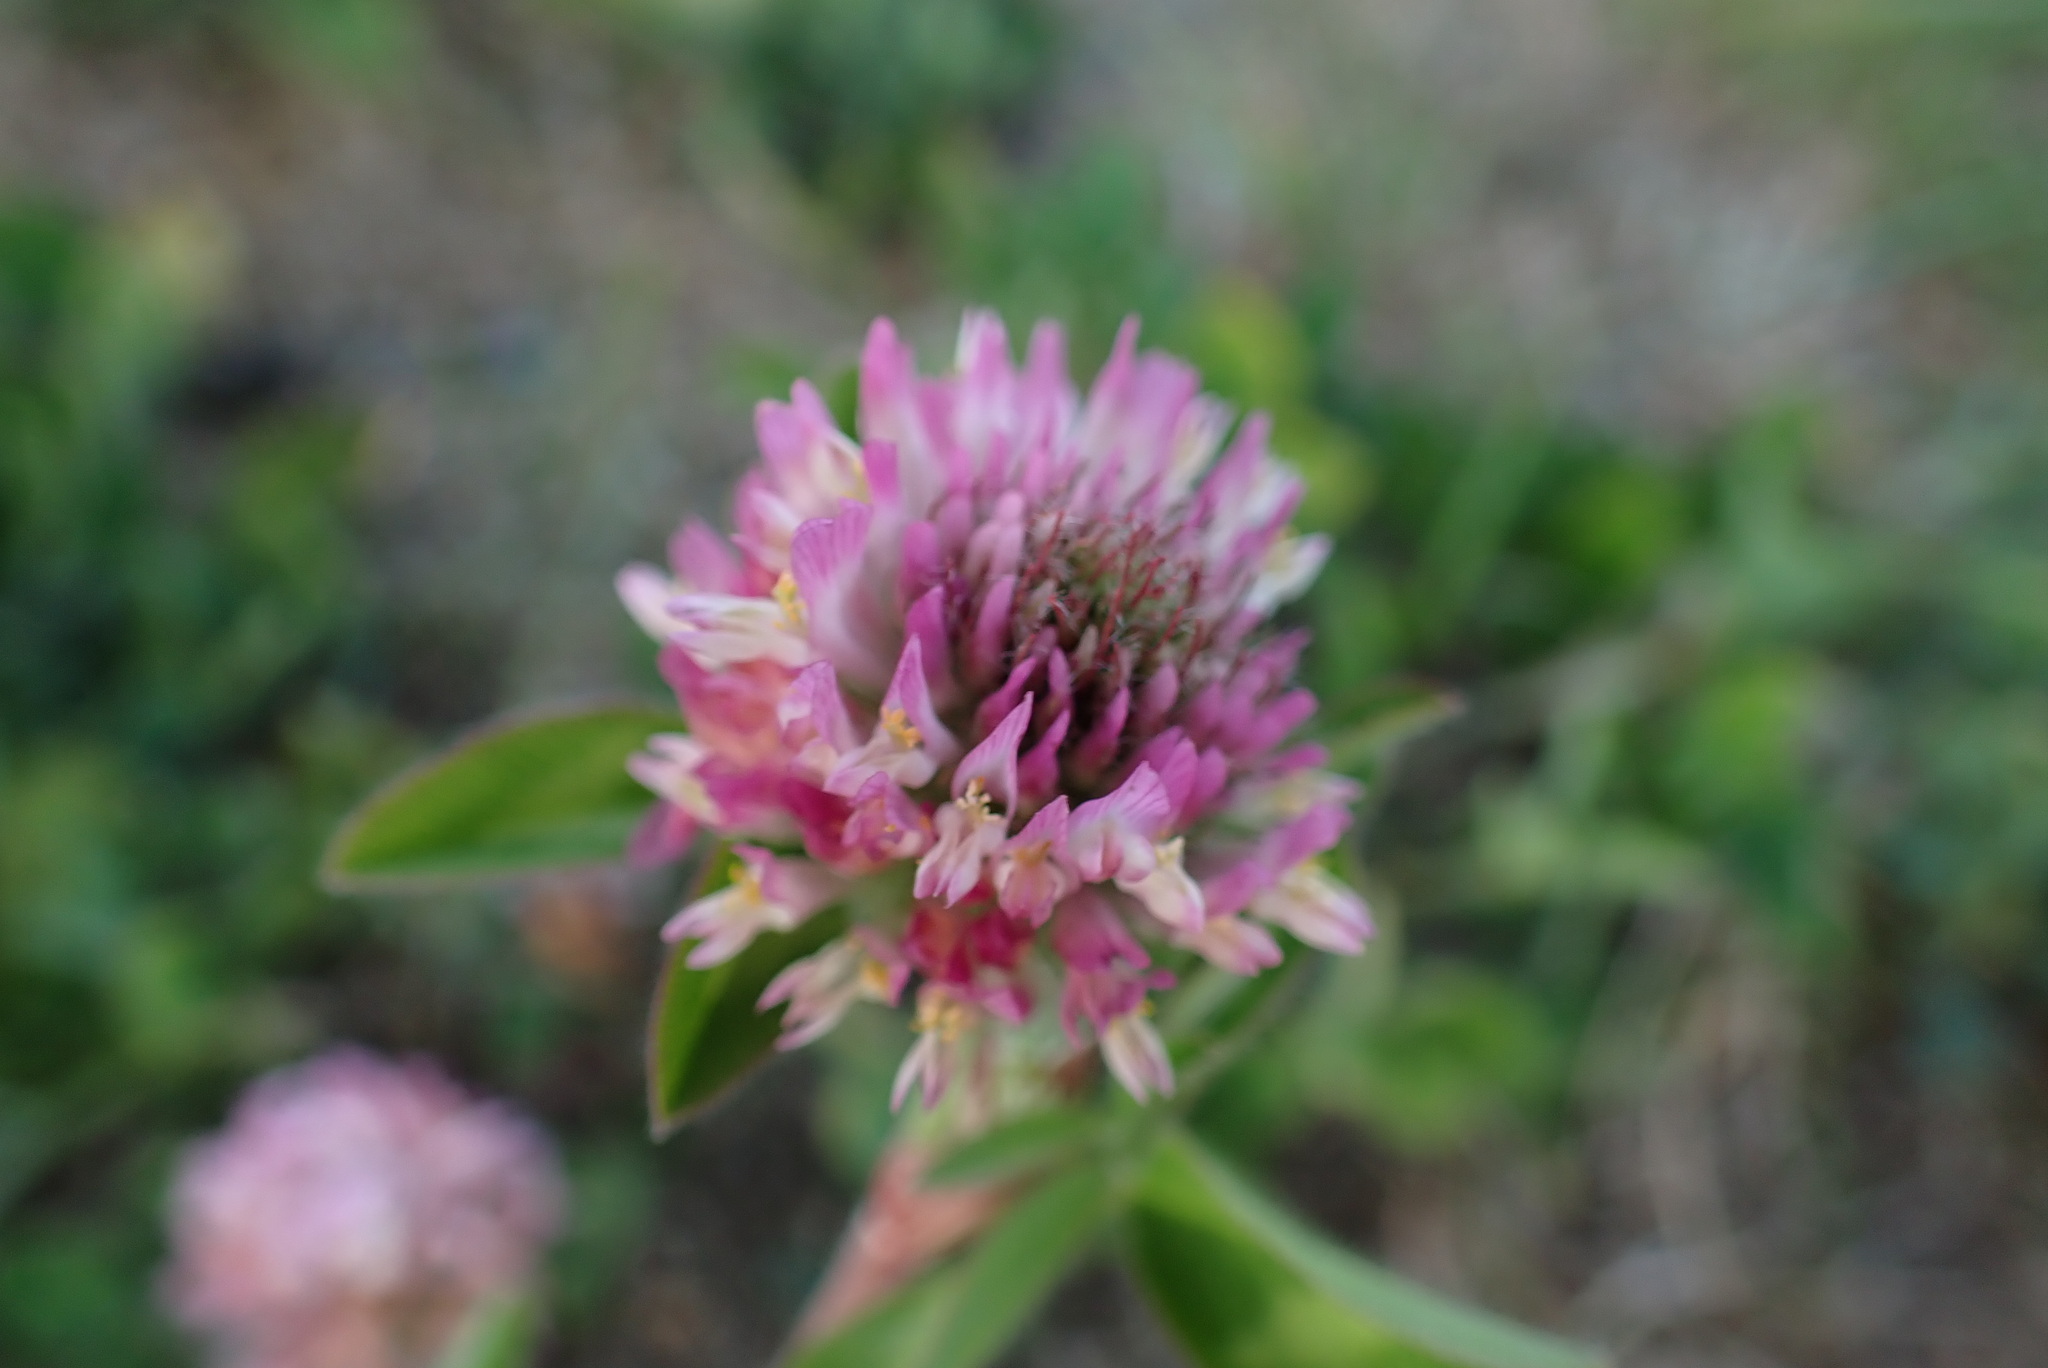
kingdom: Plantae
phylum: Tracheophyta
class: Magnoliopsida
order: Fabales
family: Fabaceae
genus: Trifolium
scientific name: Trifolium pratense
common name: Red clover
